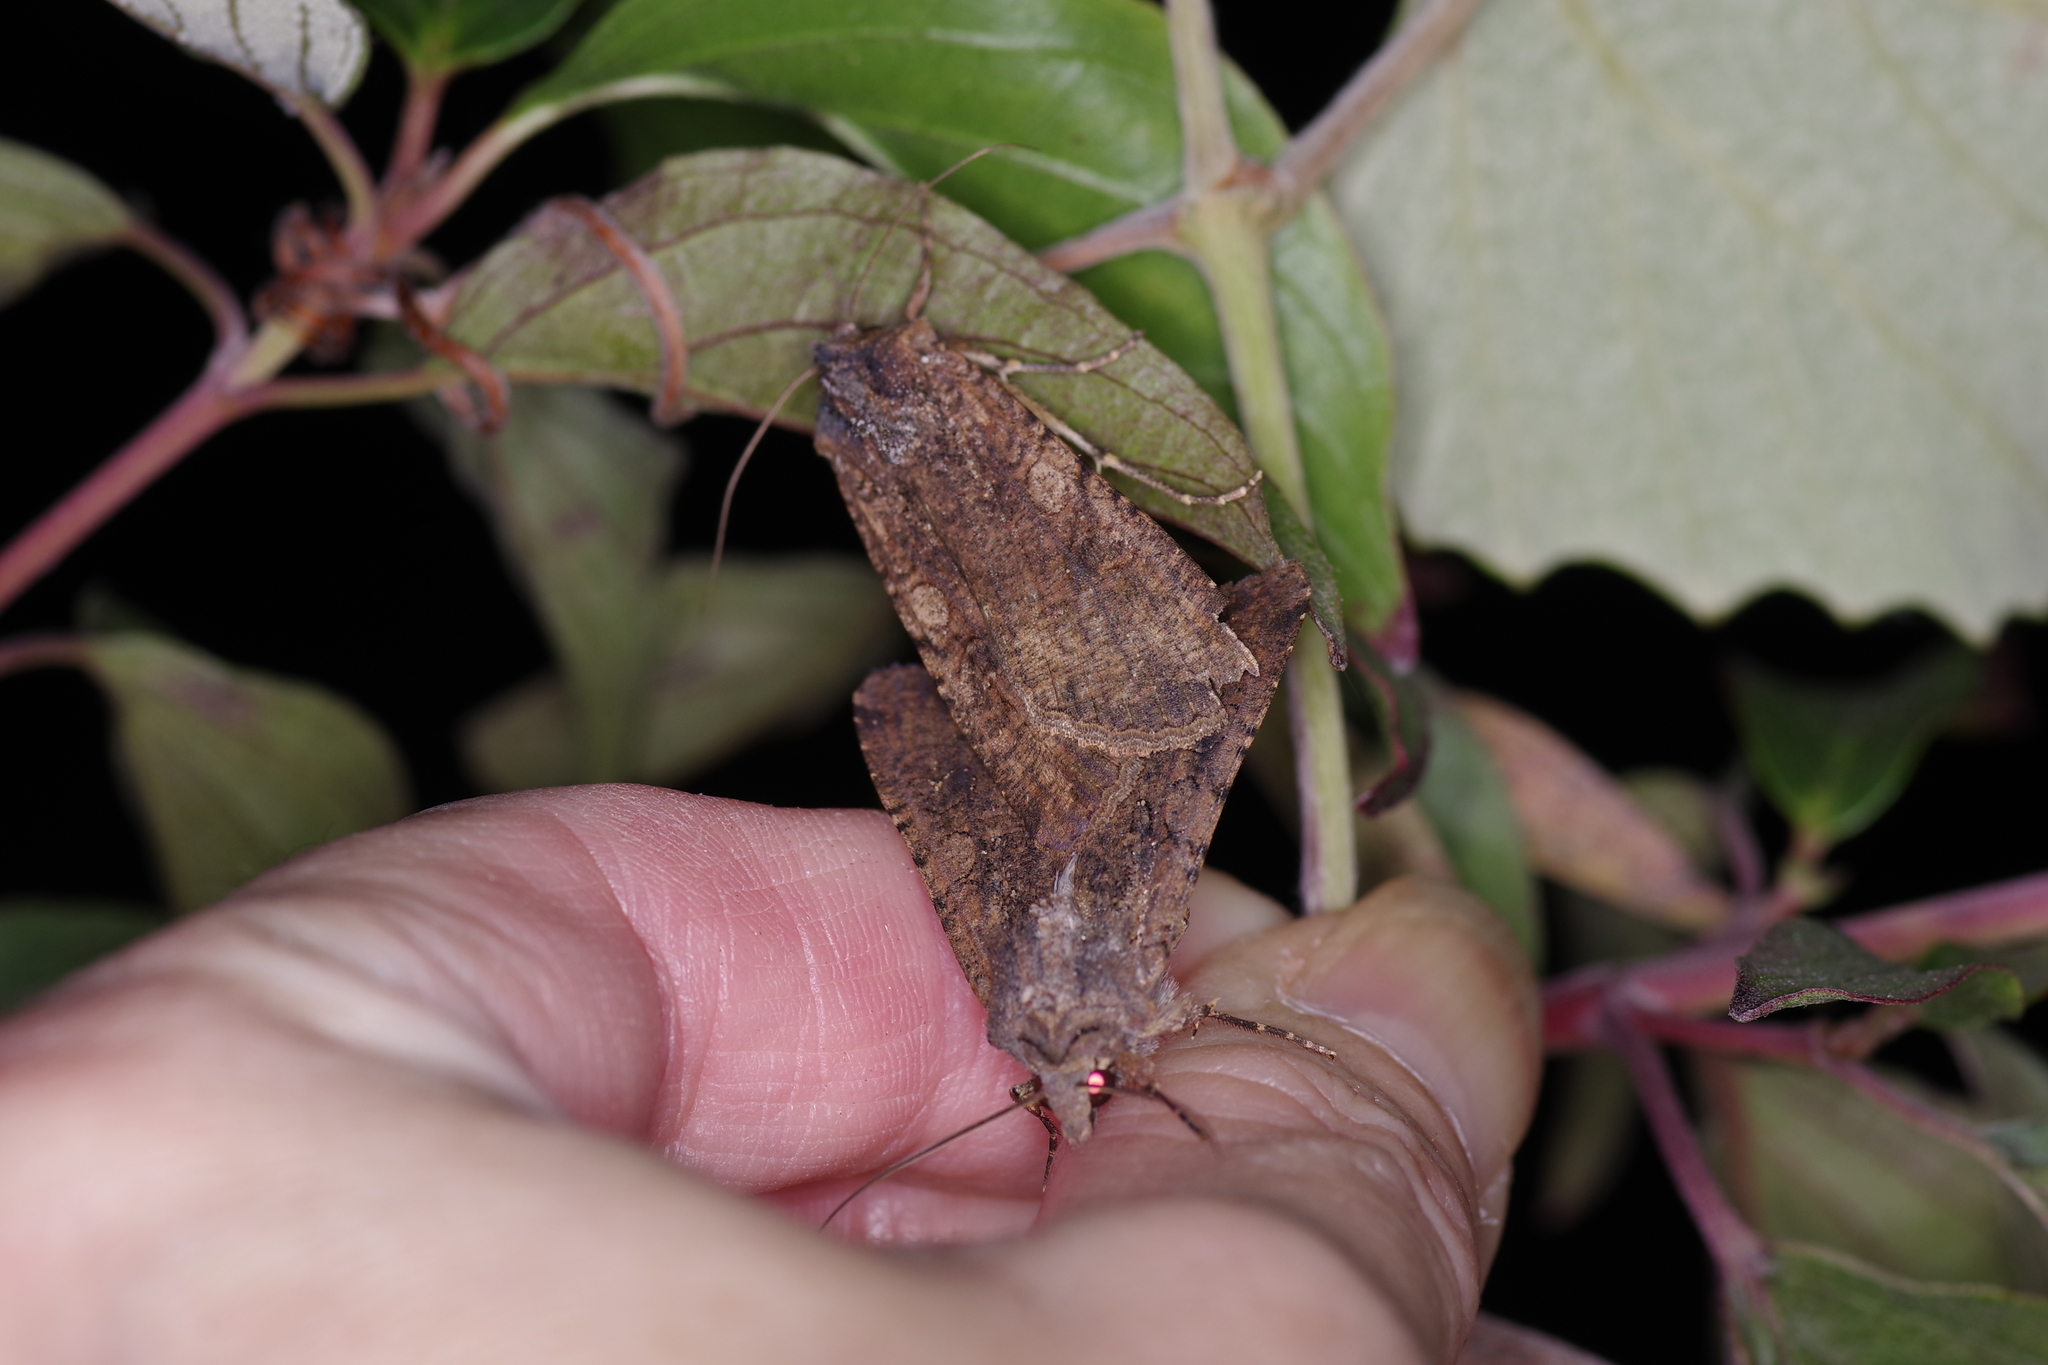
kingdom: Animalia
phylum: Arthropoda
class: Insecta
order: Lepidoptera
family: Noctuidae
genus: Peridroma
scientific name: Peridroma saucia
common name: Pearly underwing
